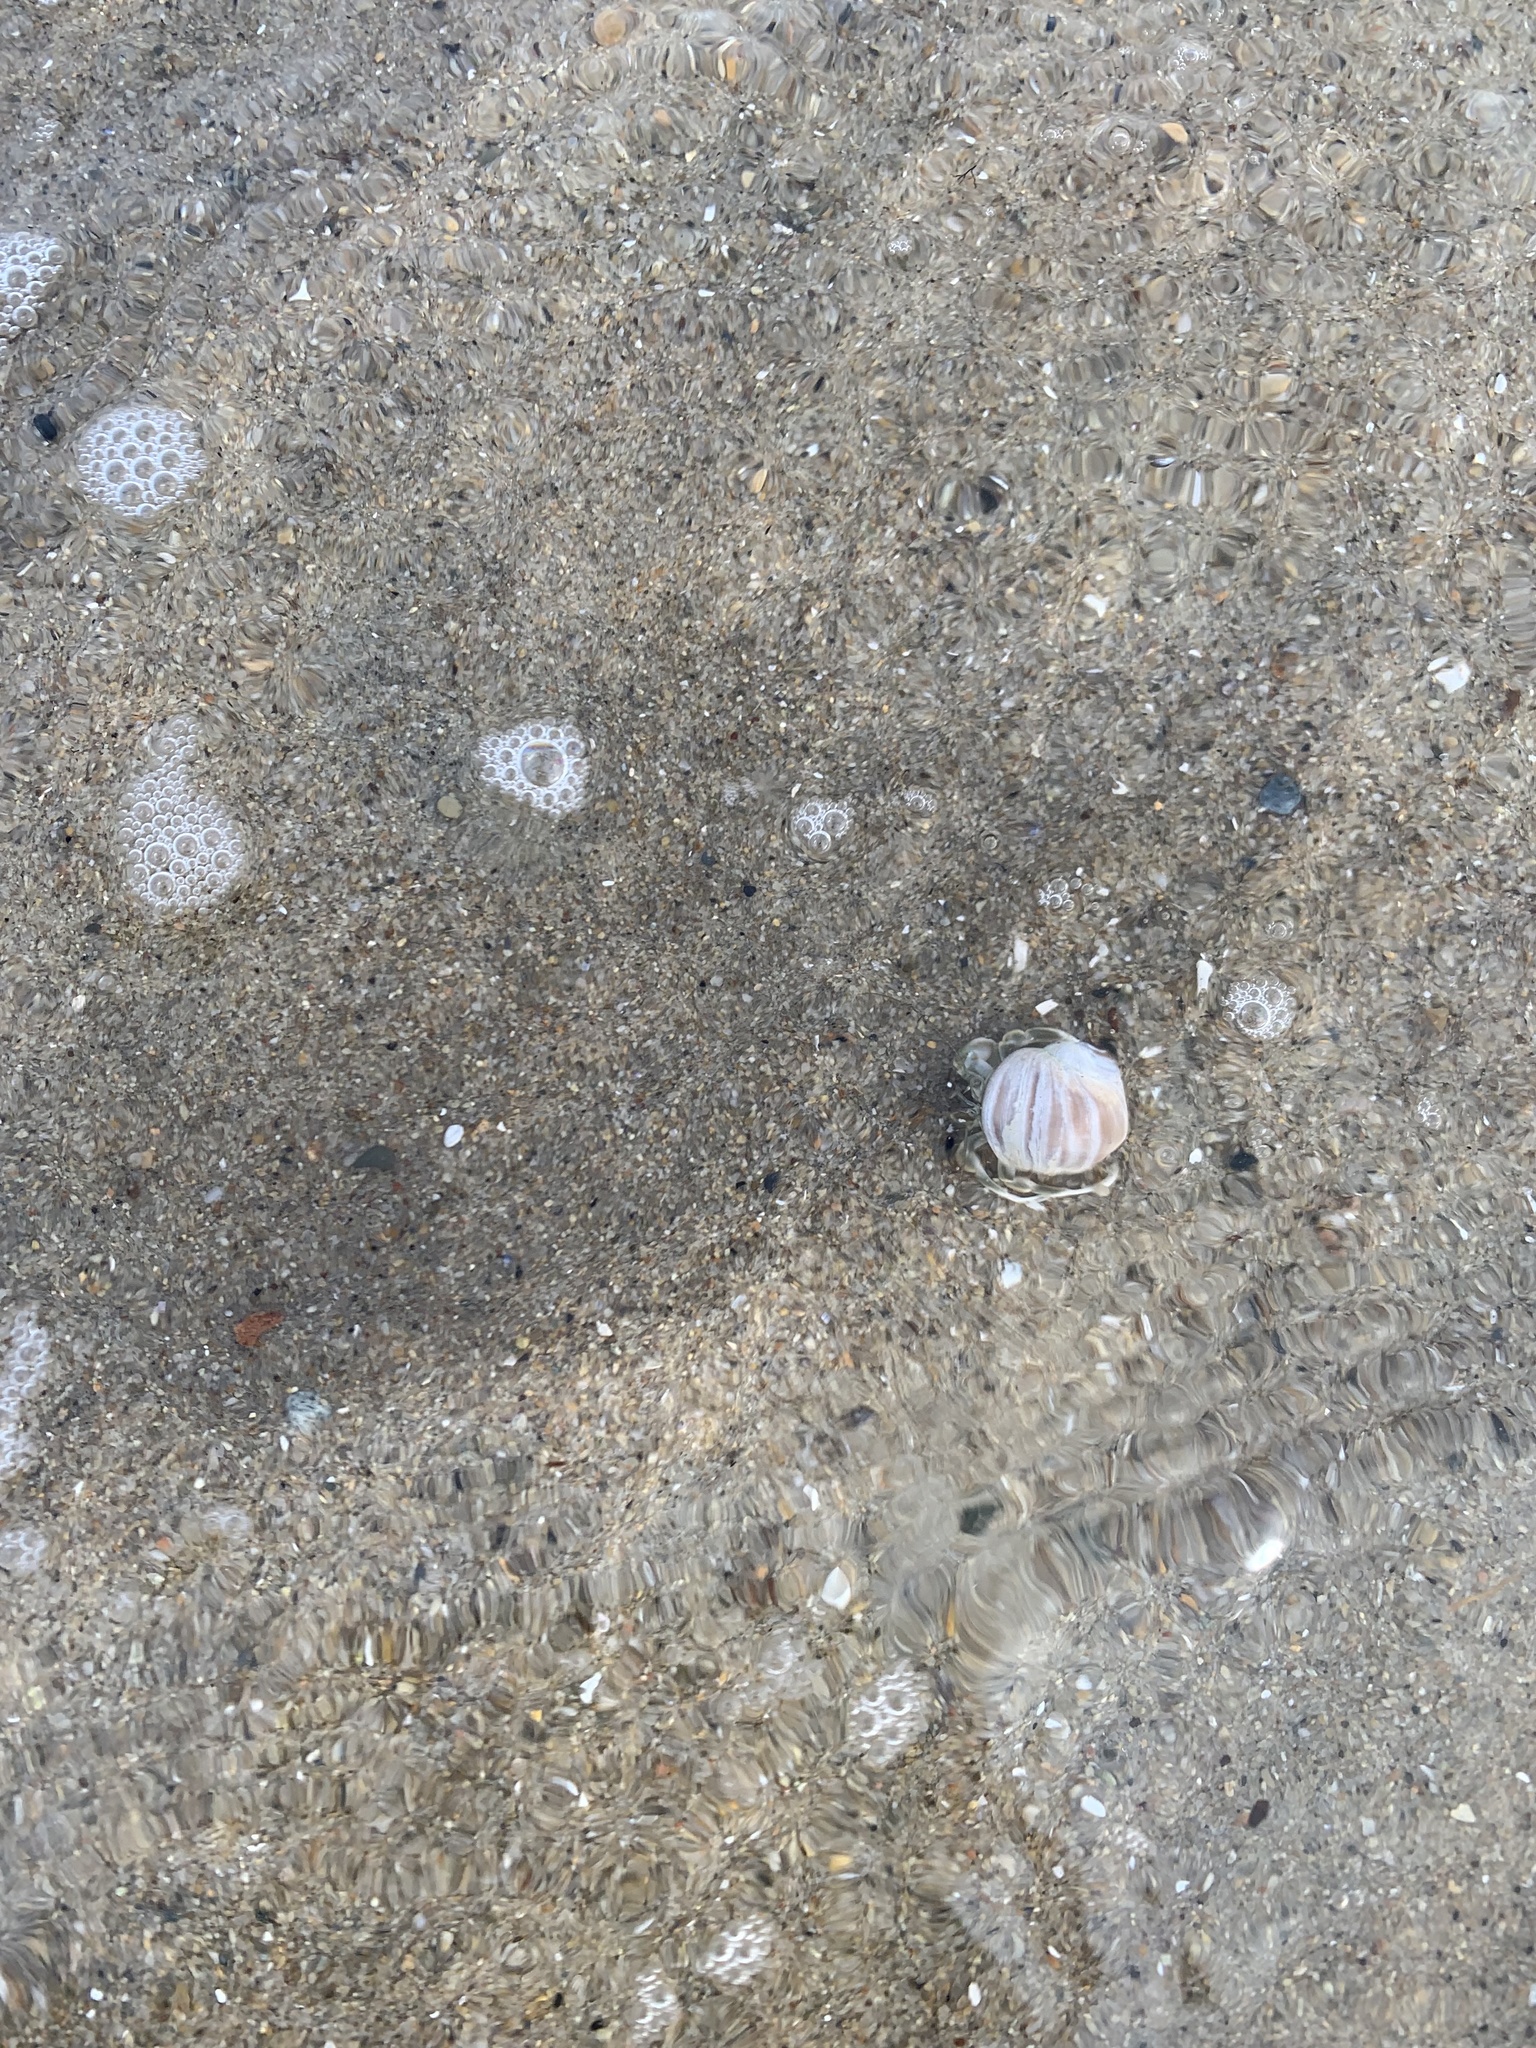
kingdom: Animalia
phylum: Arthropoda
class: Malacostraca
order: Decapoda
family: Paguridae
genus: Pagurus
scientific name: Pagurus longicarpus
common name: Long-armed hermit crab
